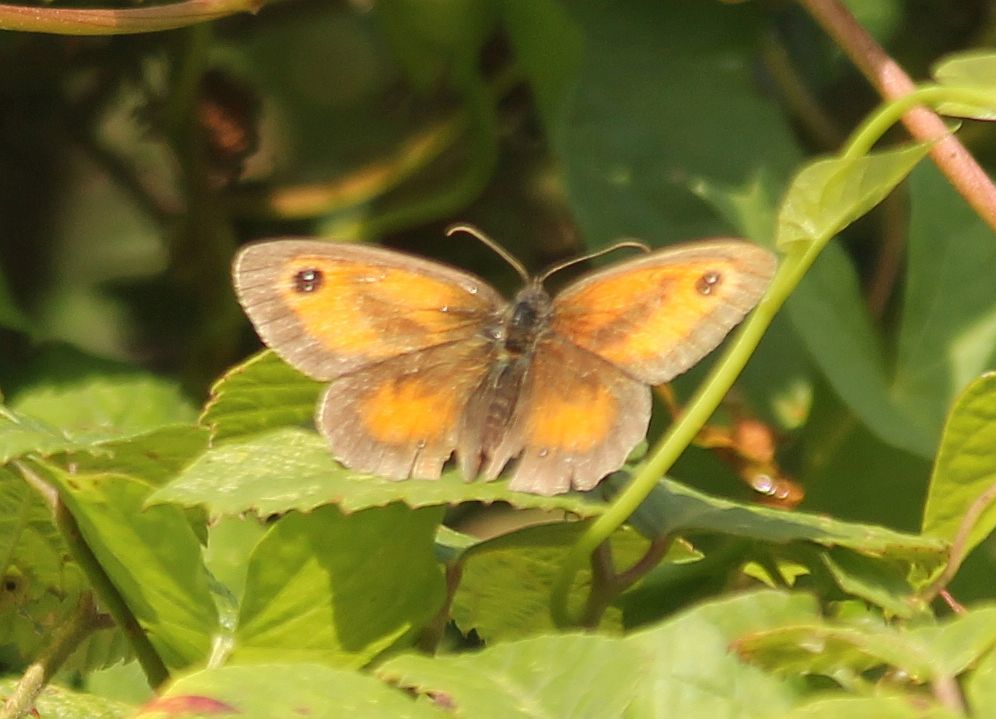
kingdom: Animalia
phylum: Arthropoda
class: Insecta
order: Lepidoptera
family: Nymphalidae
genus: Pyronia
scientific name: Pyronia tithonus
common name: Gatekeeper
